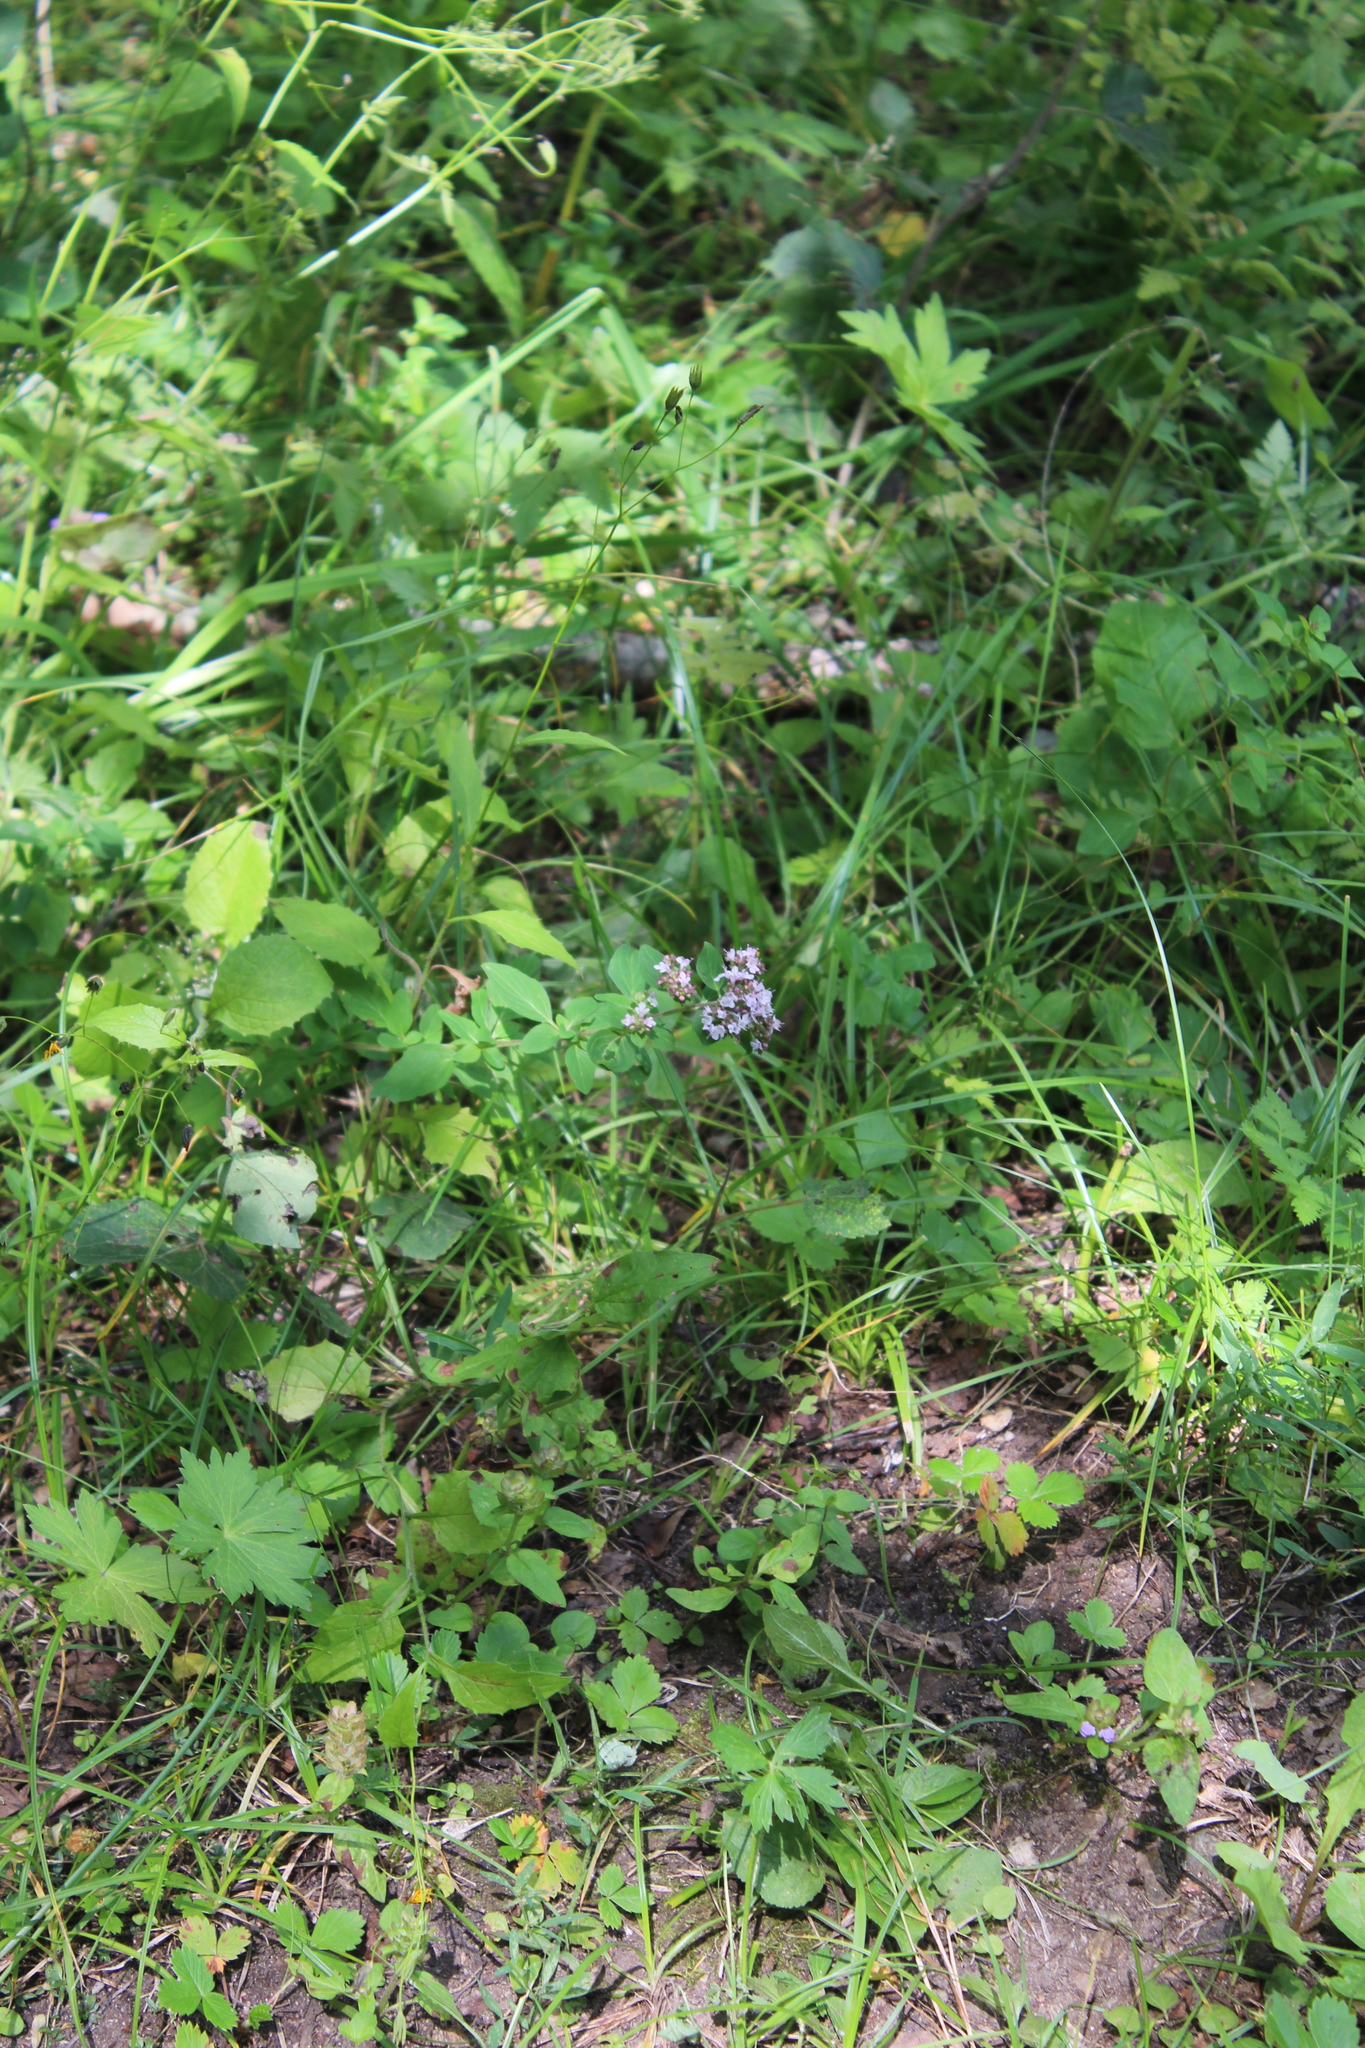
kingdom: Plantae
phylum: Tracheophyta
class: Magnoliopsida
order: Lamiales
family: Lamiaceae
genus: Origanum
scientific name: Origanum vulgare
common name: Wild marjoram
